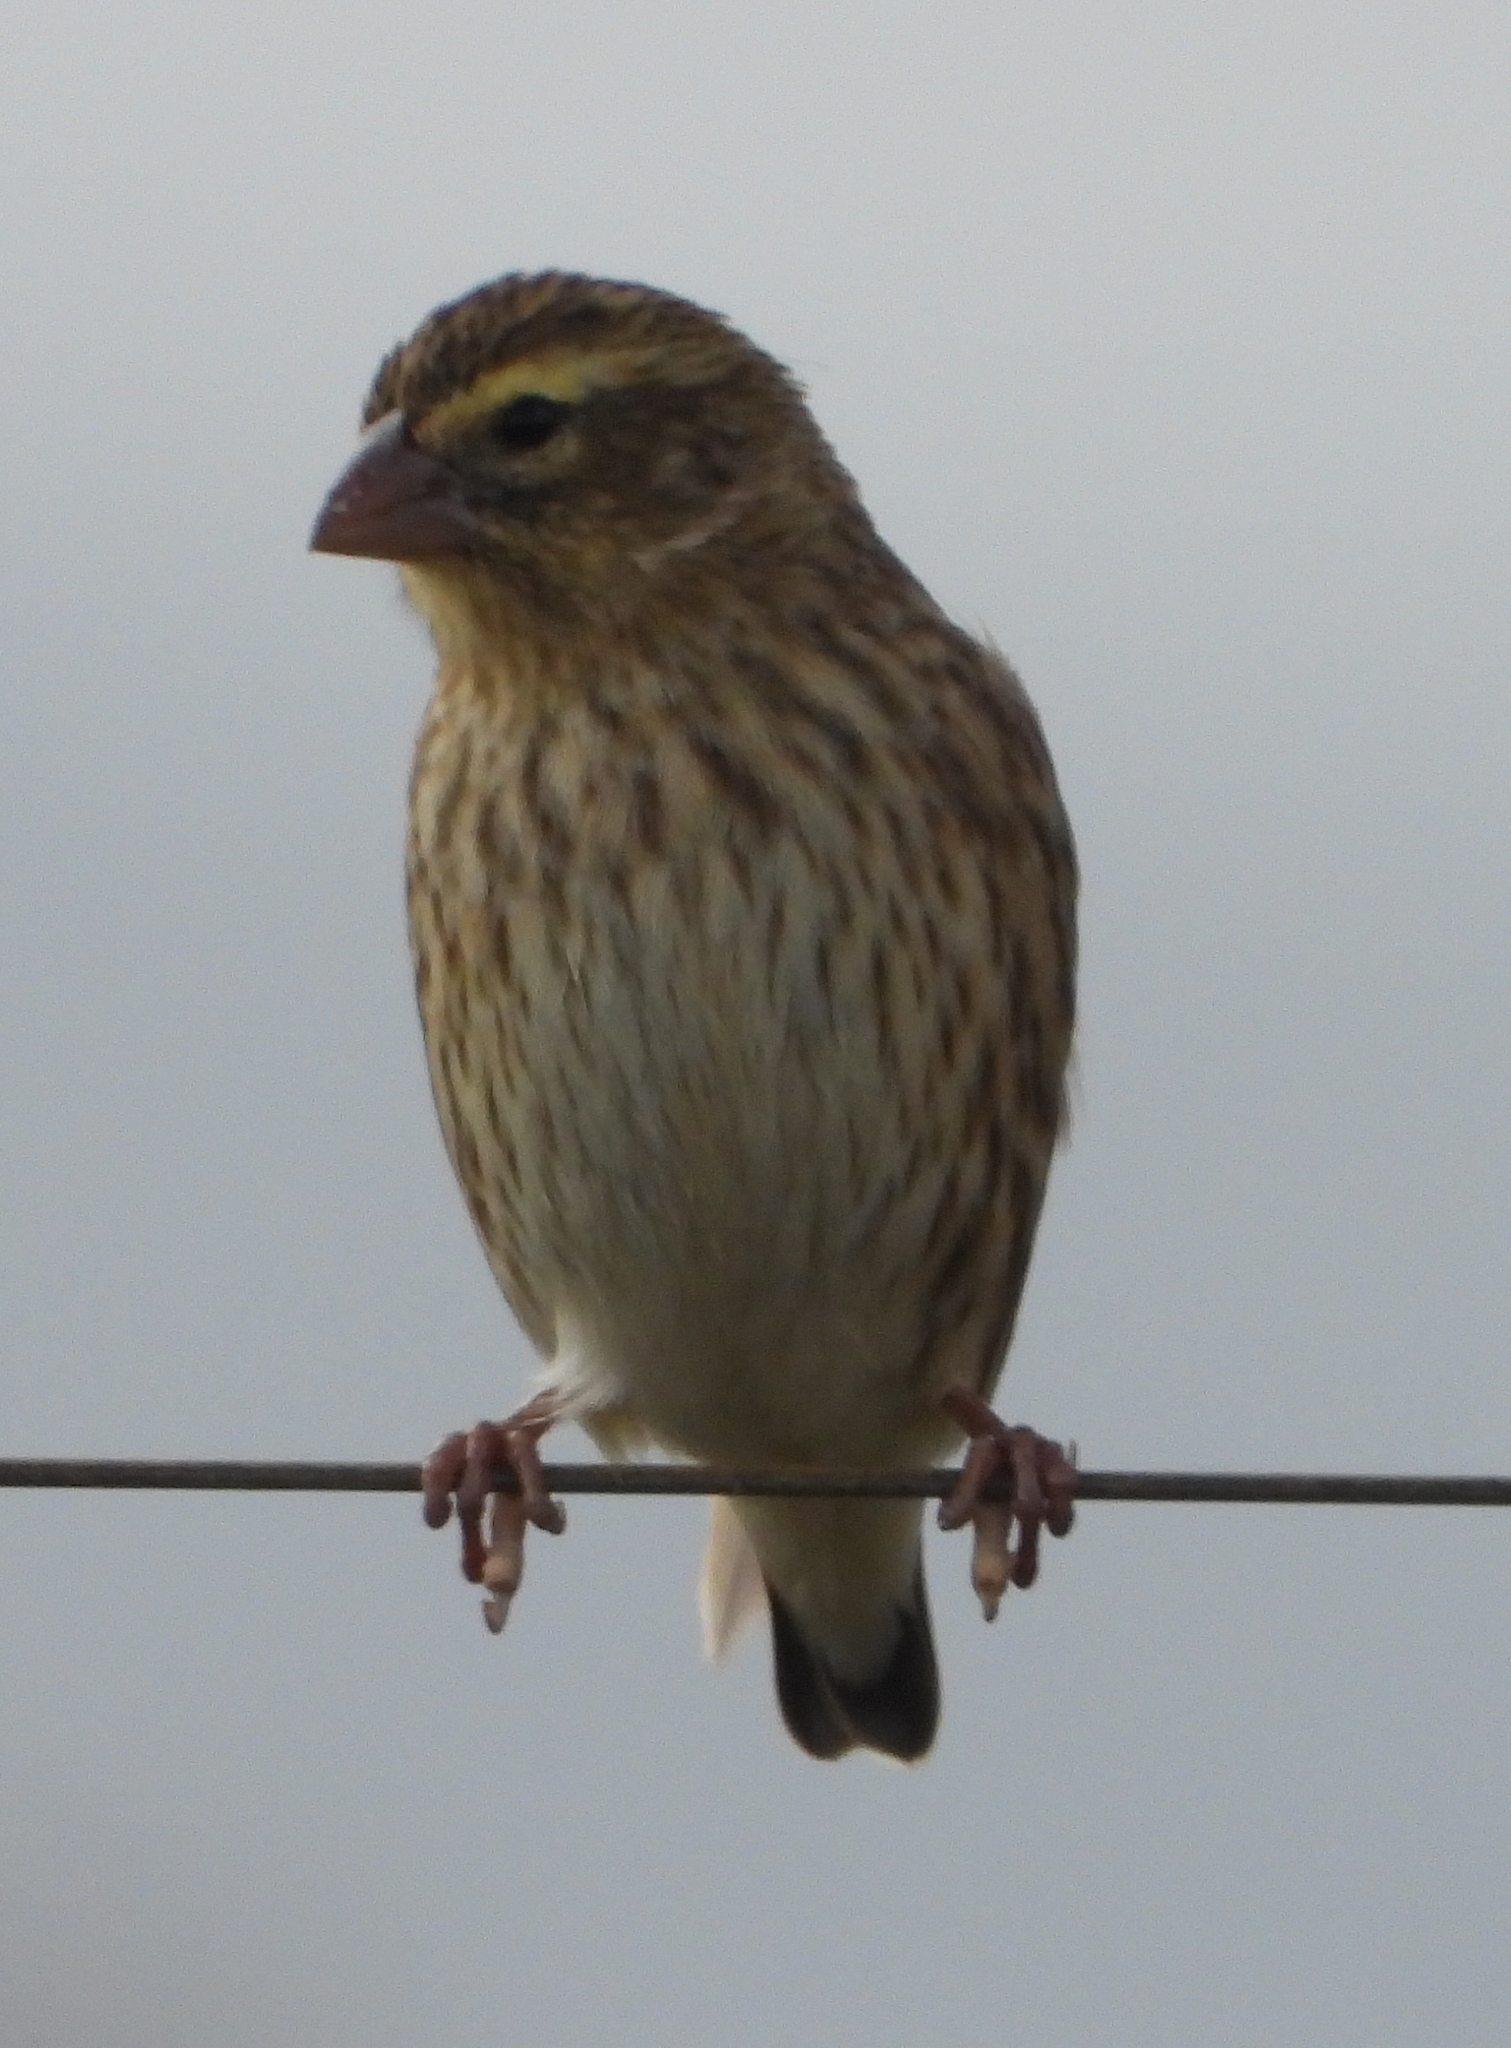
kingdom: Animalia
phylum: Chordata
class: Aves
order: Passeriformes
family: Ploceidae
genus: Euplectes
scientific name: Euplectes orix
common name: Southern red bishop
